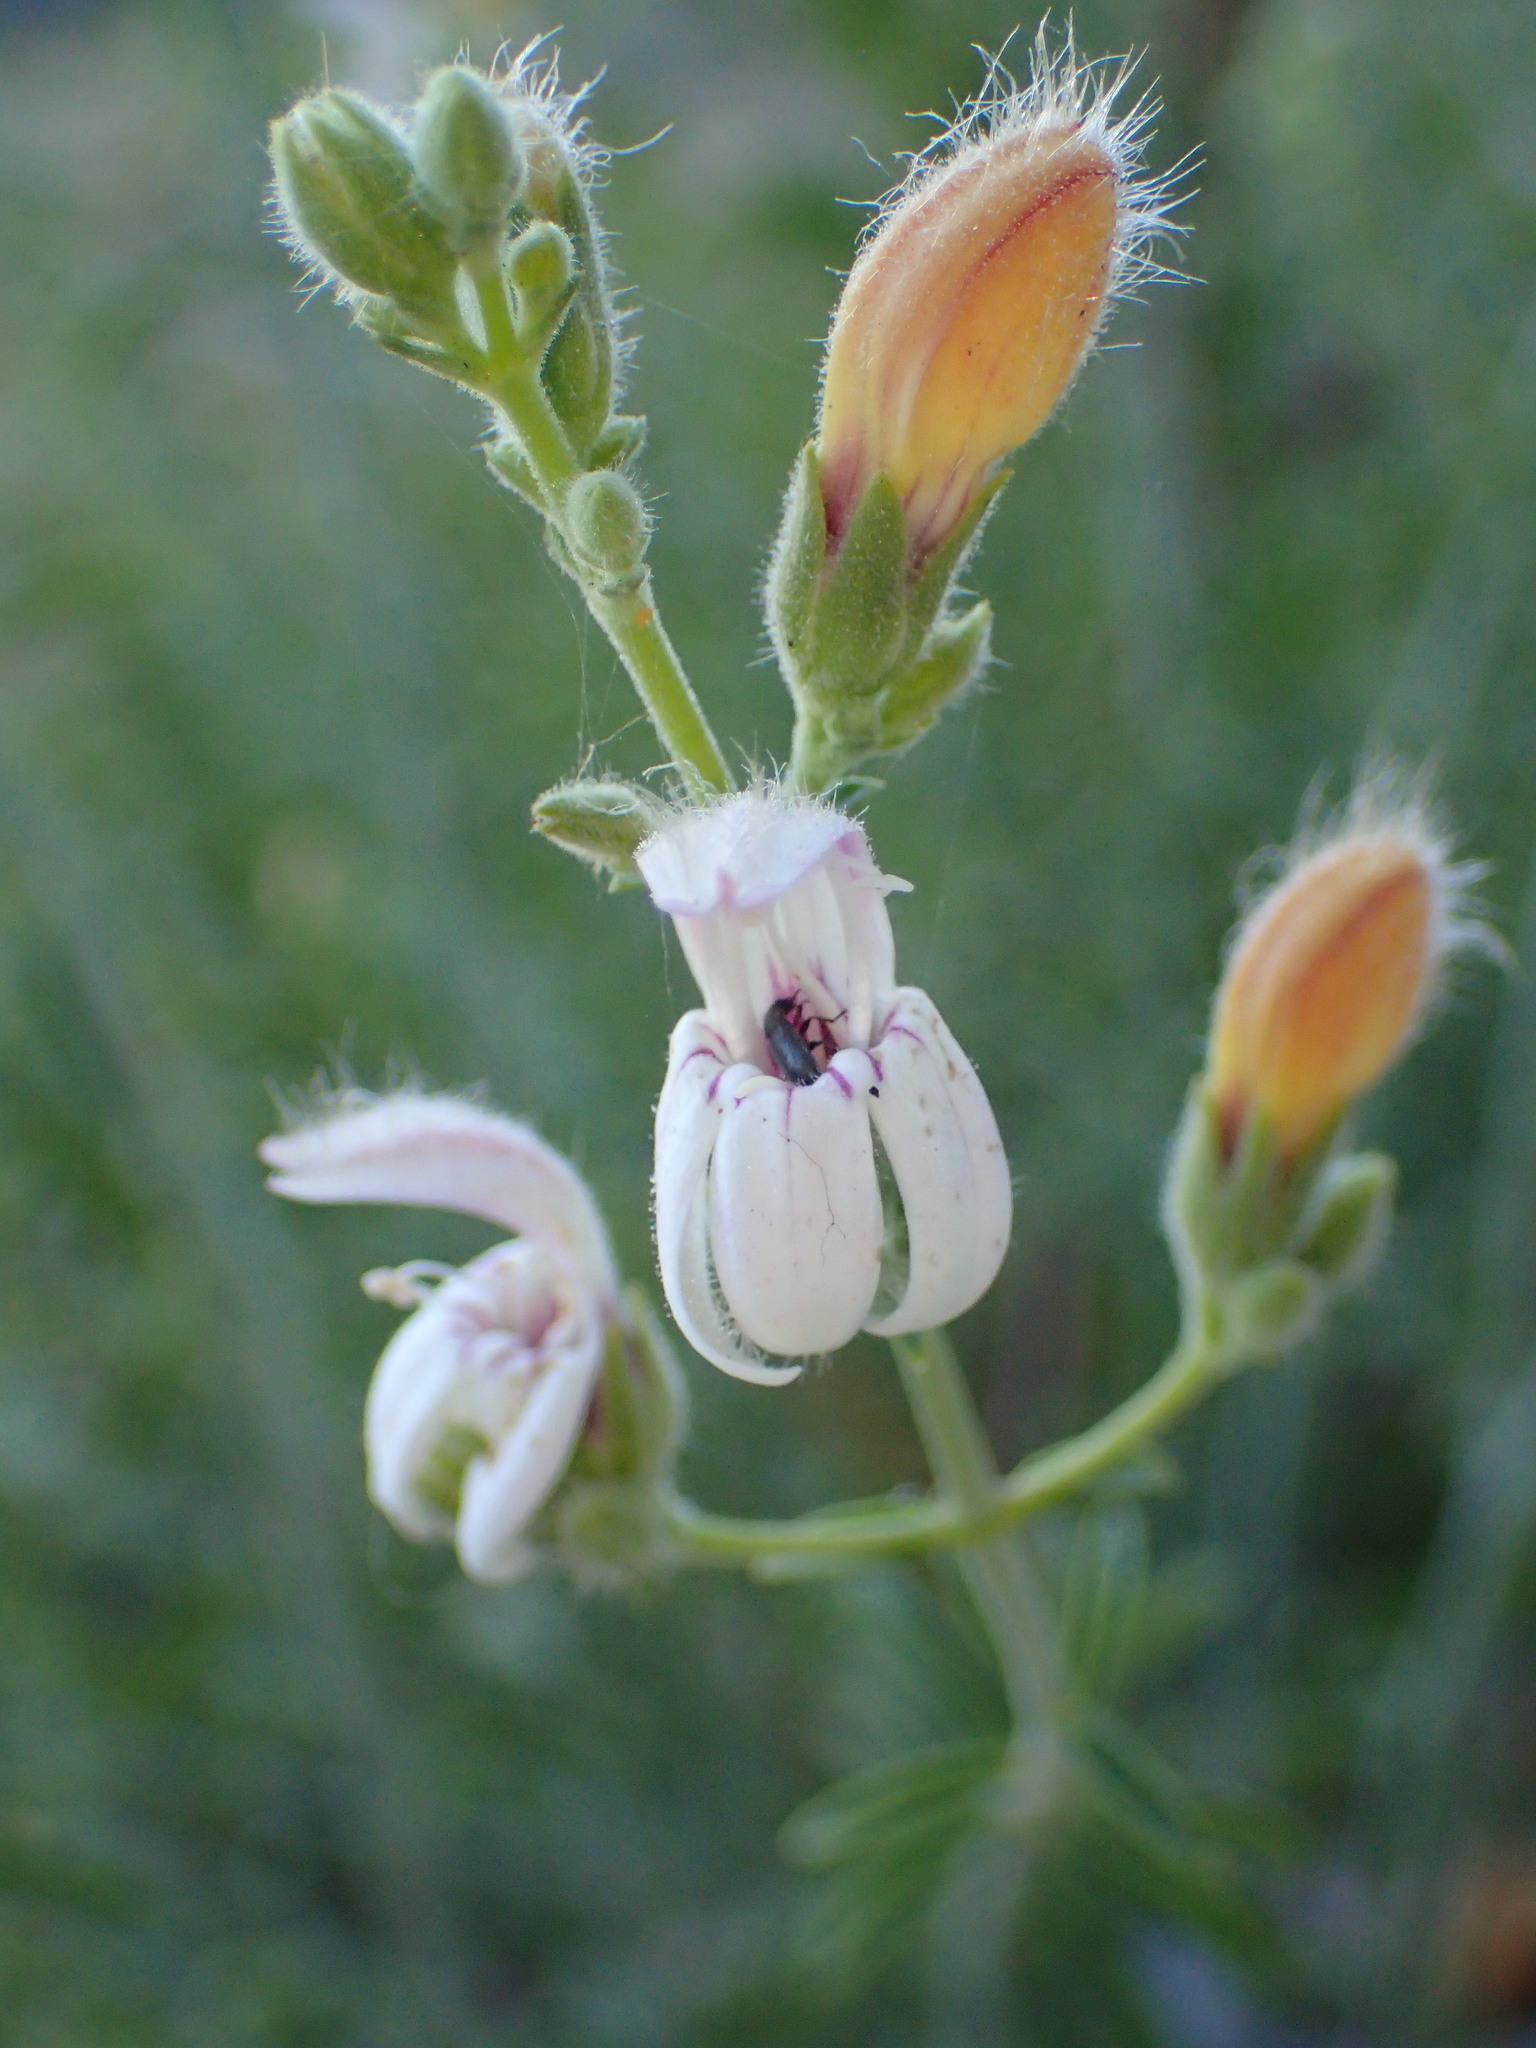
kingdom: Plantae
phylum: Tracheophyta
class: Magnoliopsida
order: Lamiales
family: Plantaginaceae
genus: Keckiella
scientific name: Keckiella breviflora
